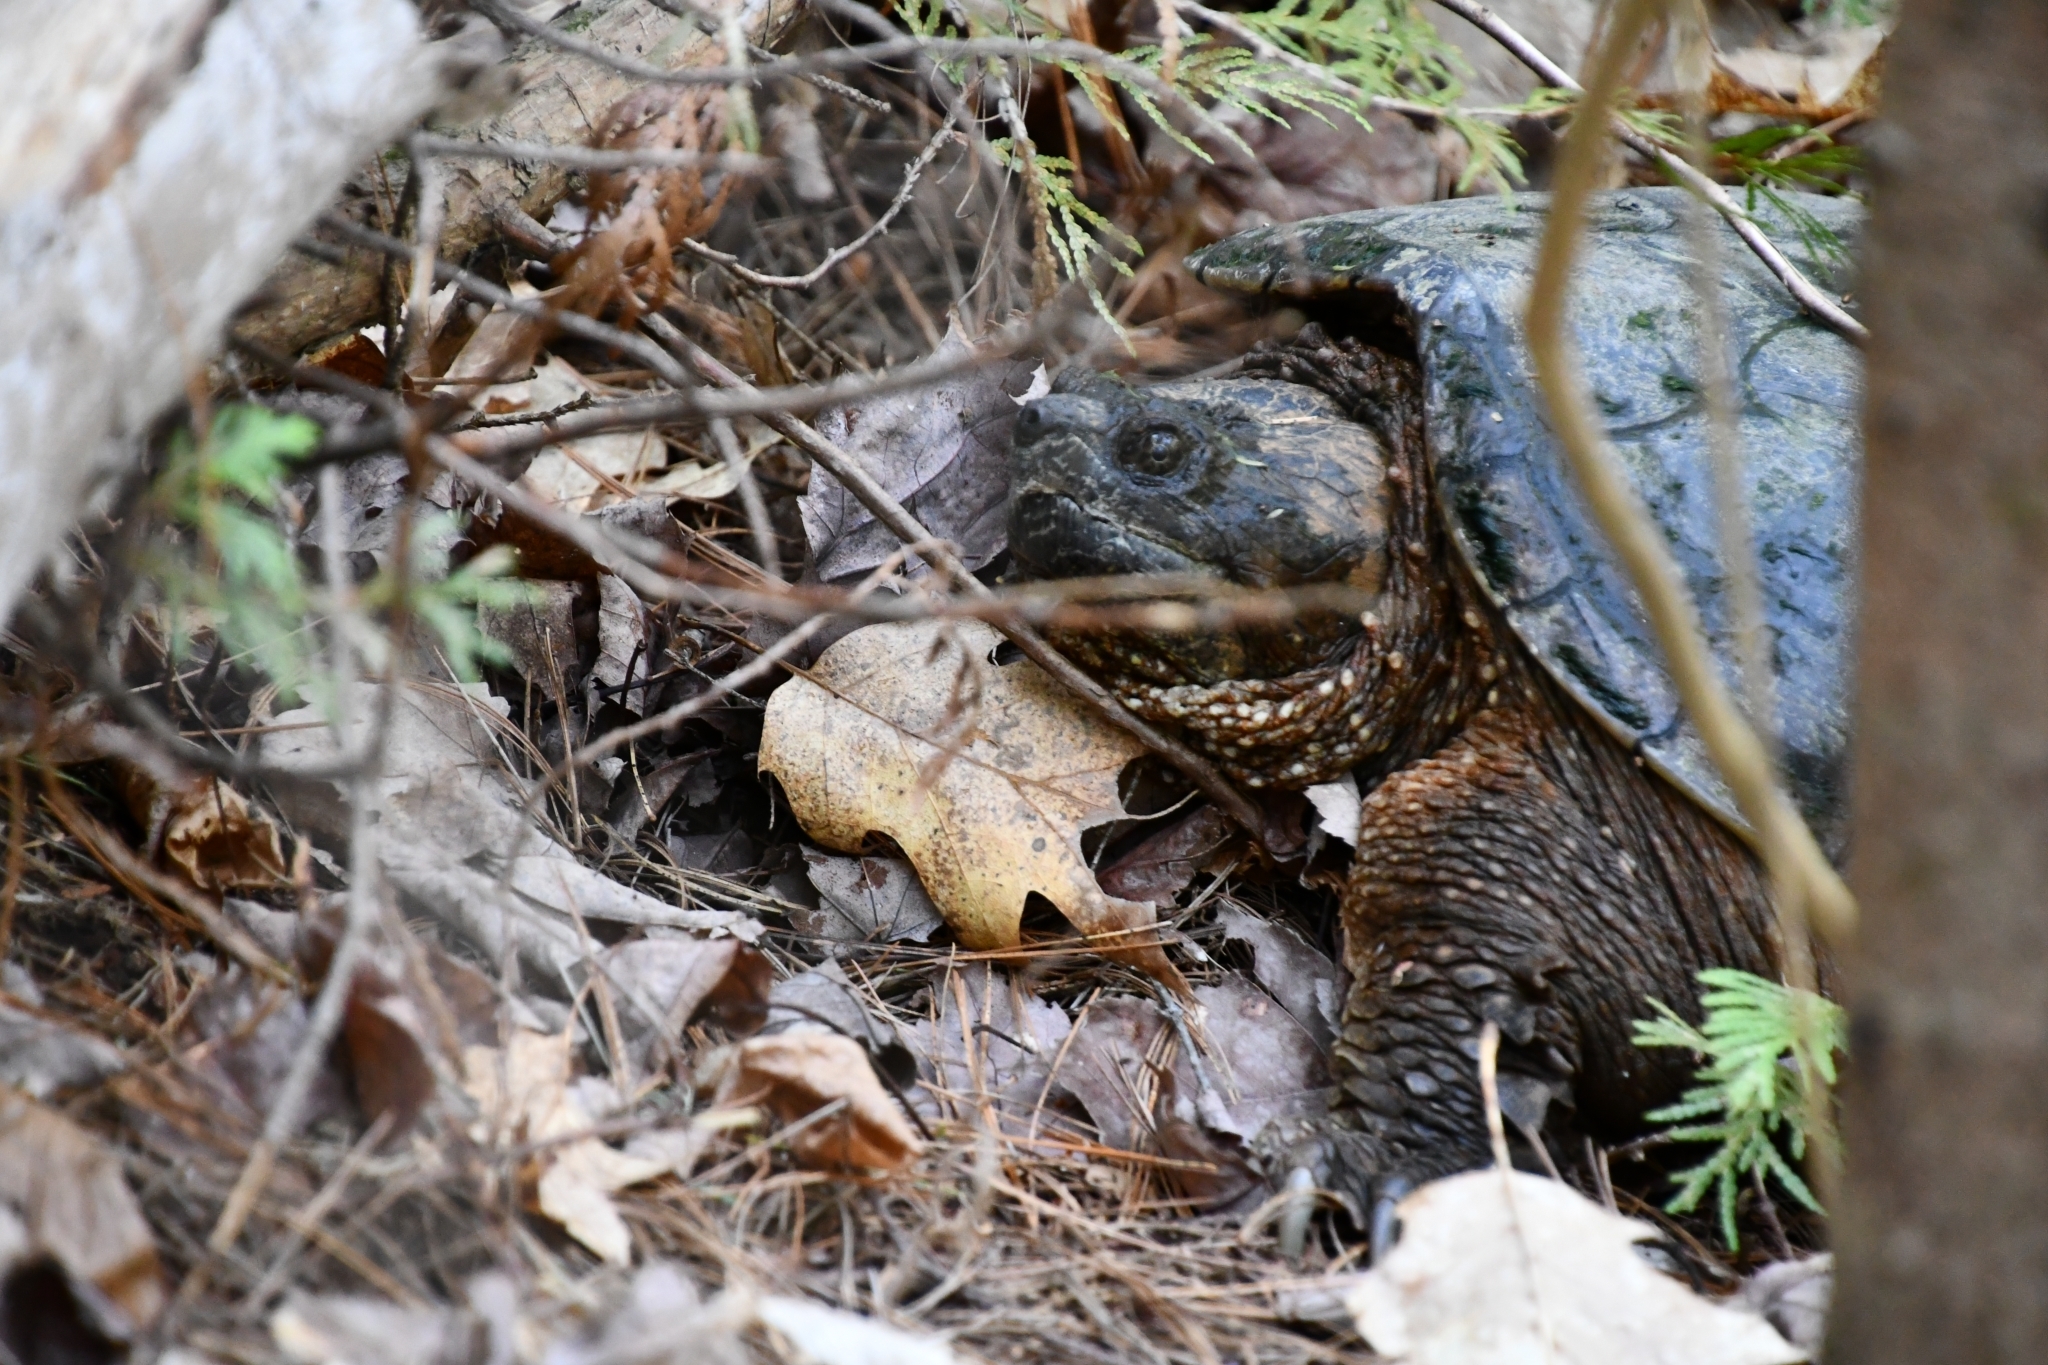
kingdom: Animalia
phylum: Chordata
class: Testudines
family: Chelydridae
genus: Chelydra
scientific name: Chelydra serpentina
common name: Common snapping turtle
